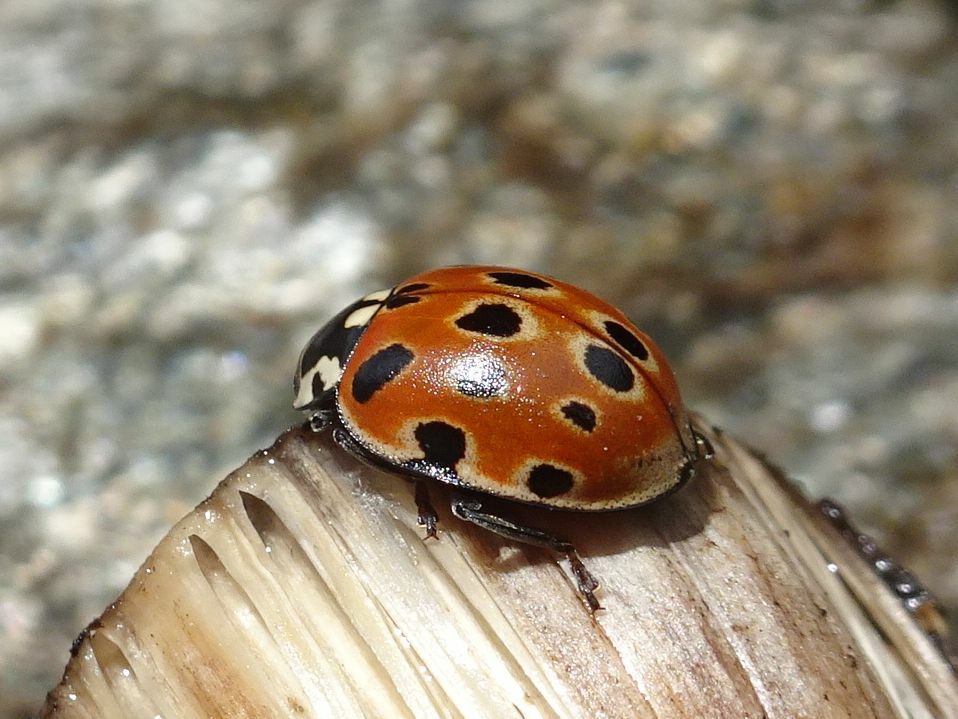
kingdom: Animalia
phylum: Arthropoda
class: Insecta
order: Coleoptera
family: Coccinellidae
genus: Anatis
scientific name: Anatis ocellata
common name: Eyed ladybird
